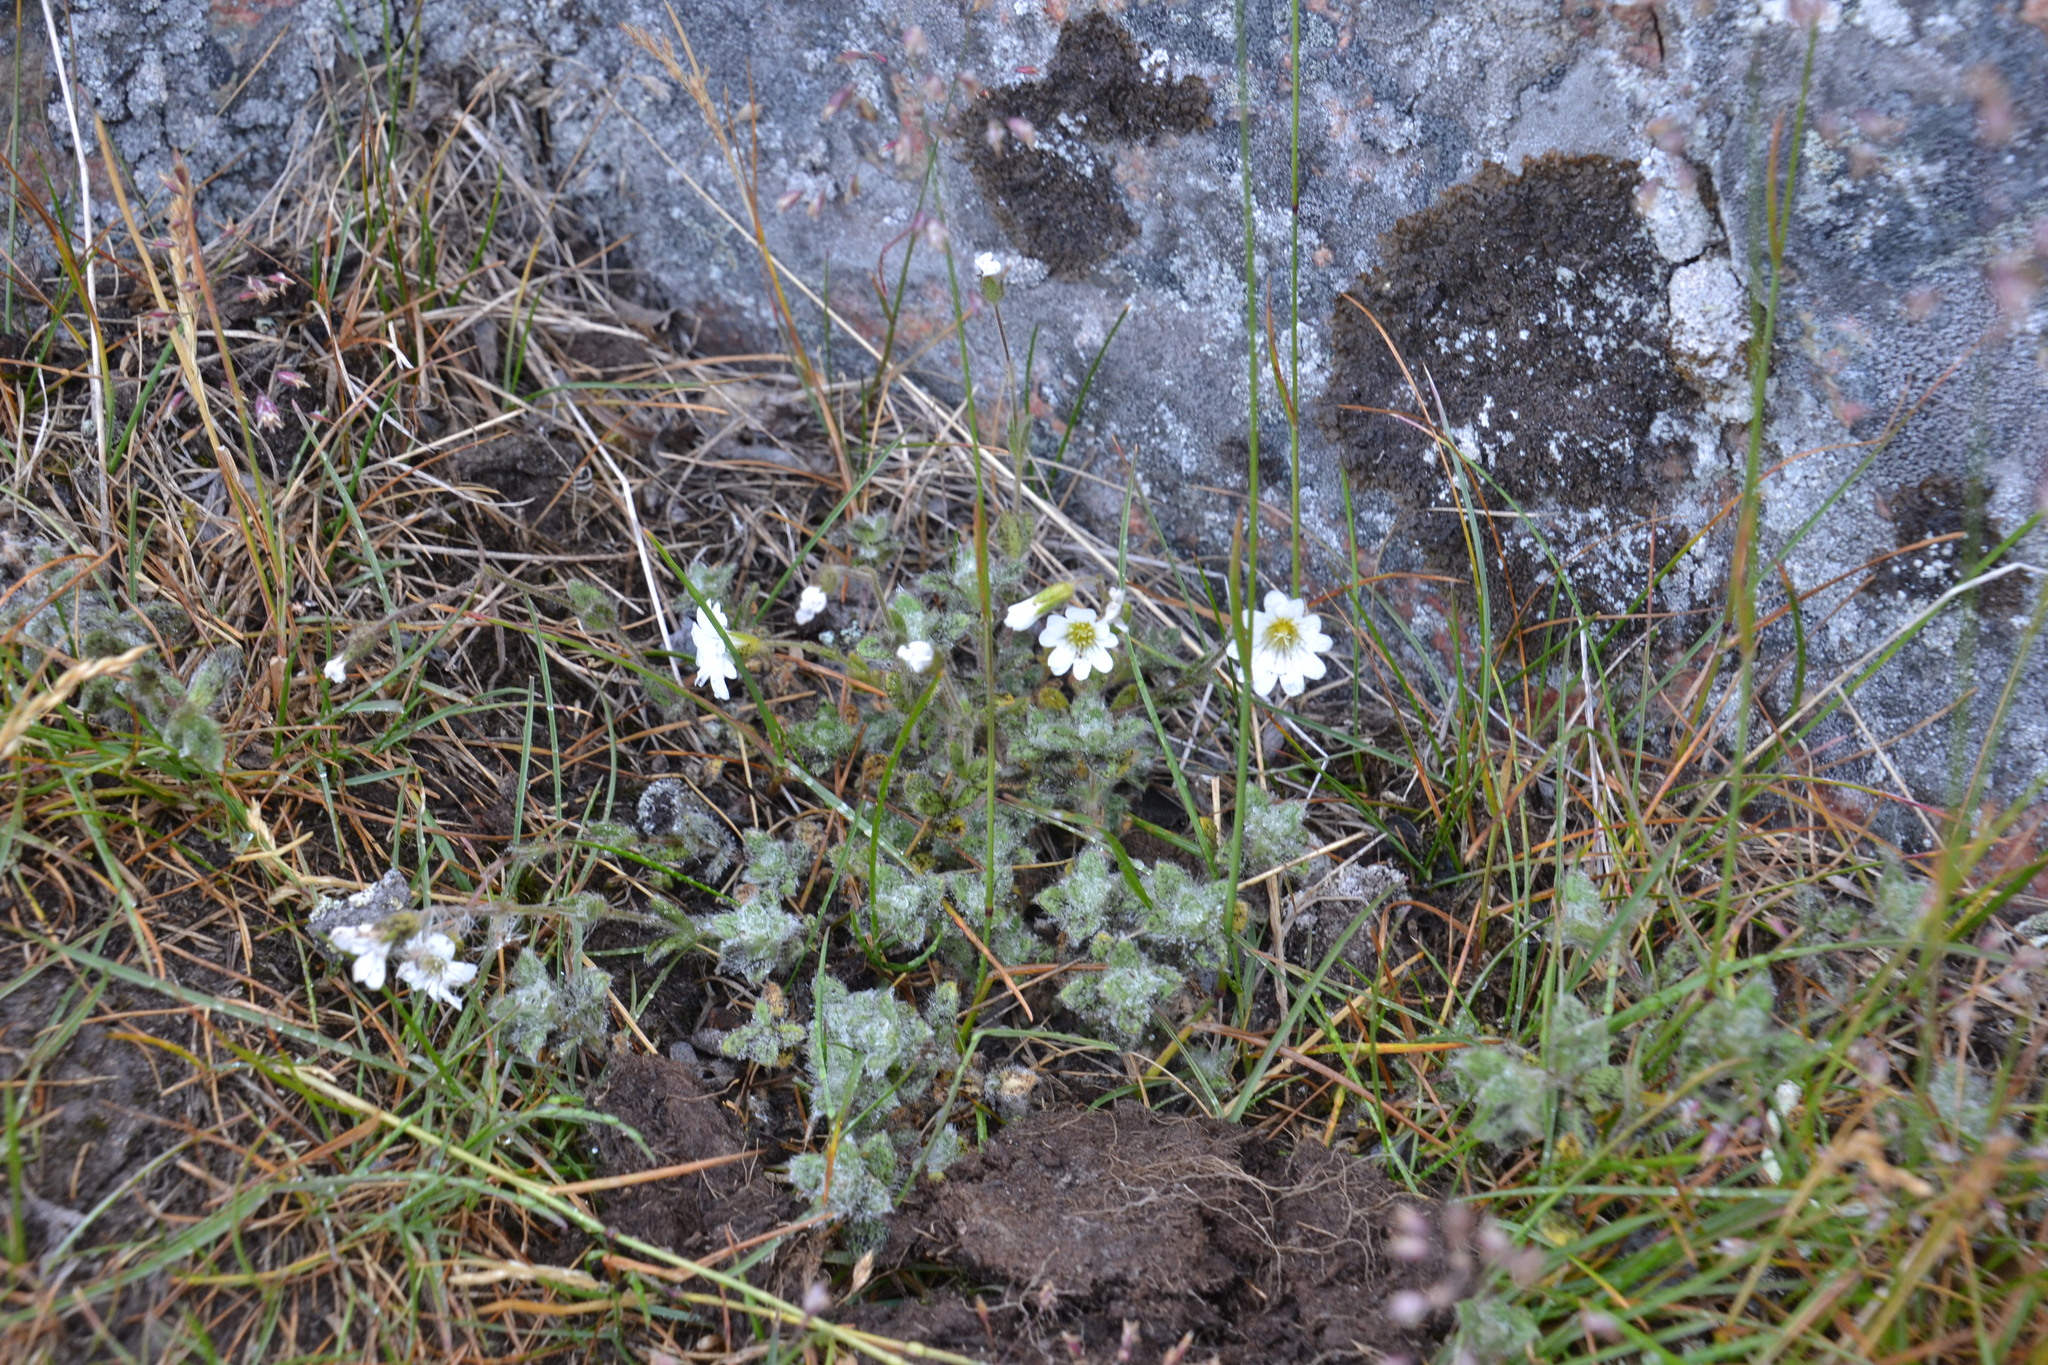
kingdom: Plantae
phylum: Tracheophyta
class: Magnoliopsida
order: Caryophyllales
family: Caryophyllaceae
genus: Cerastium
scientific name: Cerastium alpinum
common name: Alpine mouse-ear
